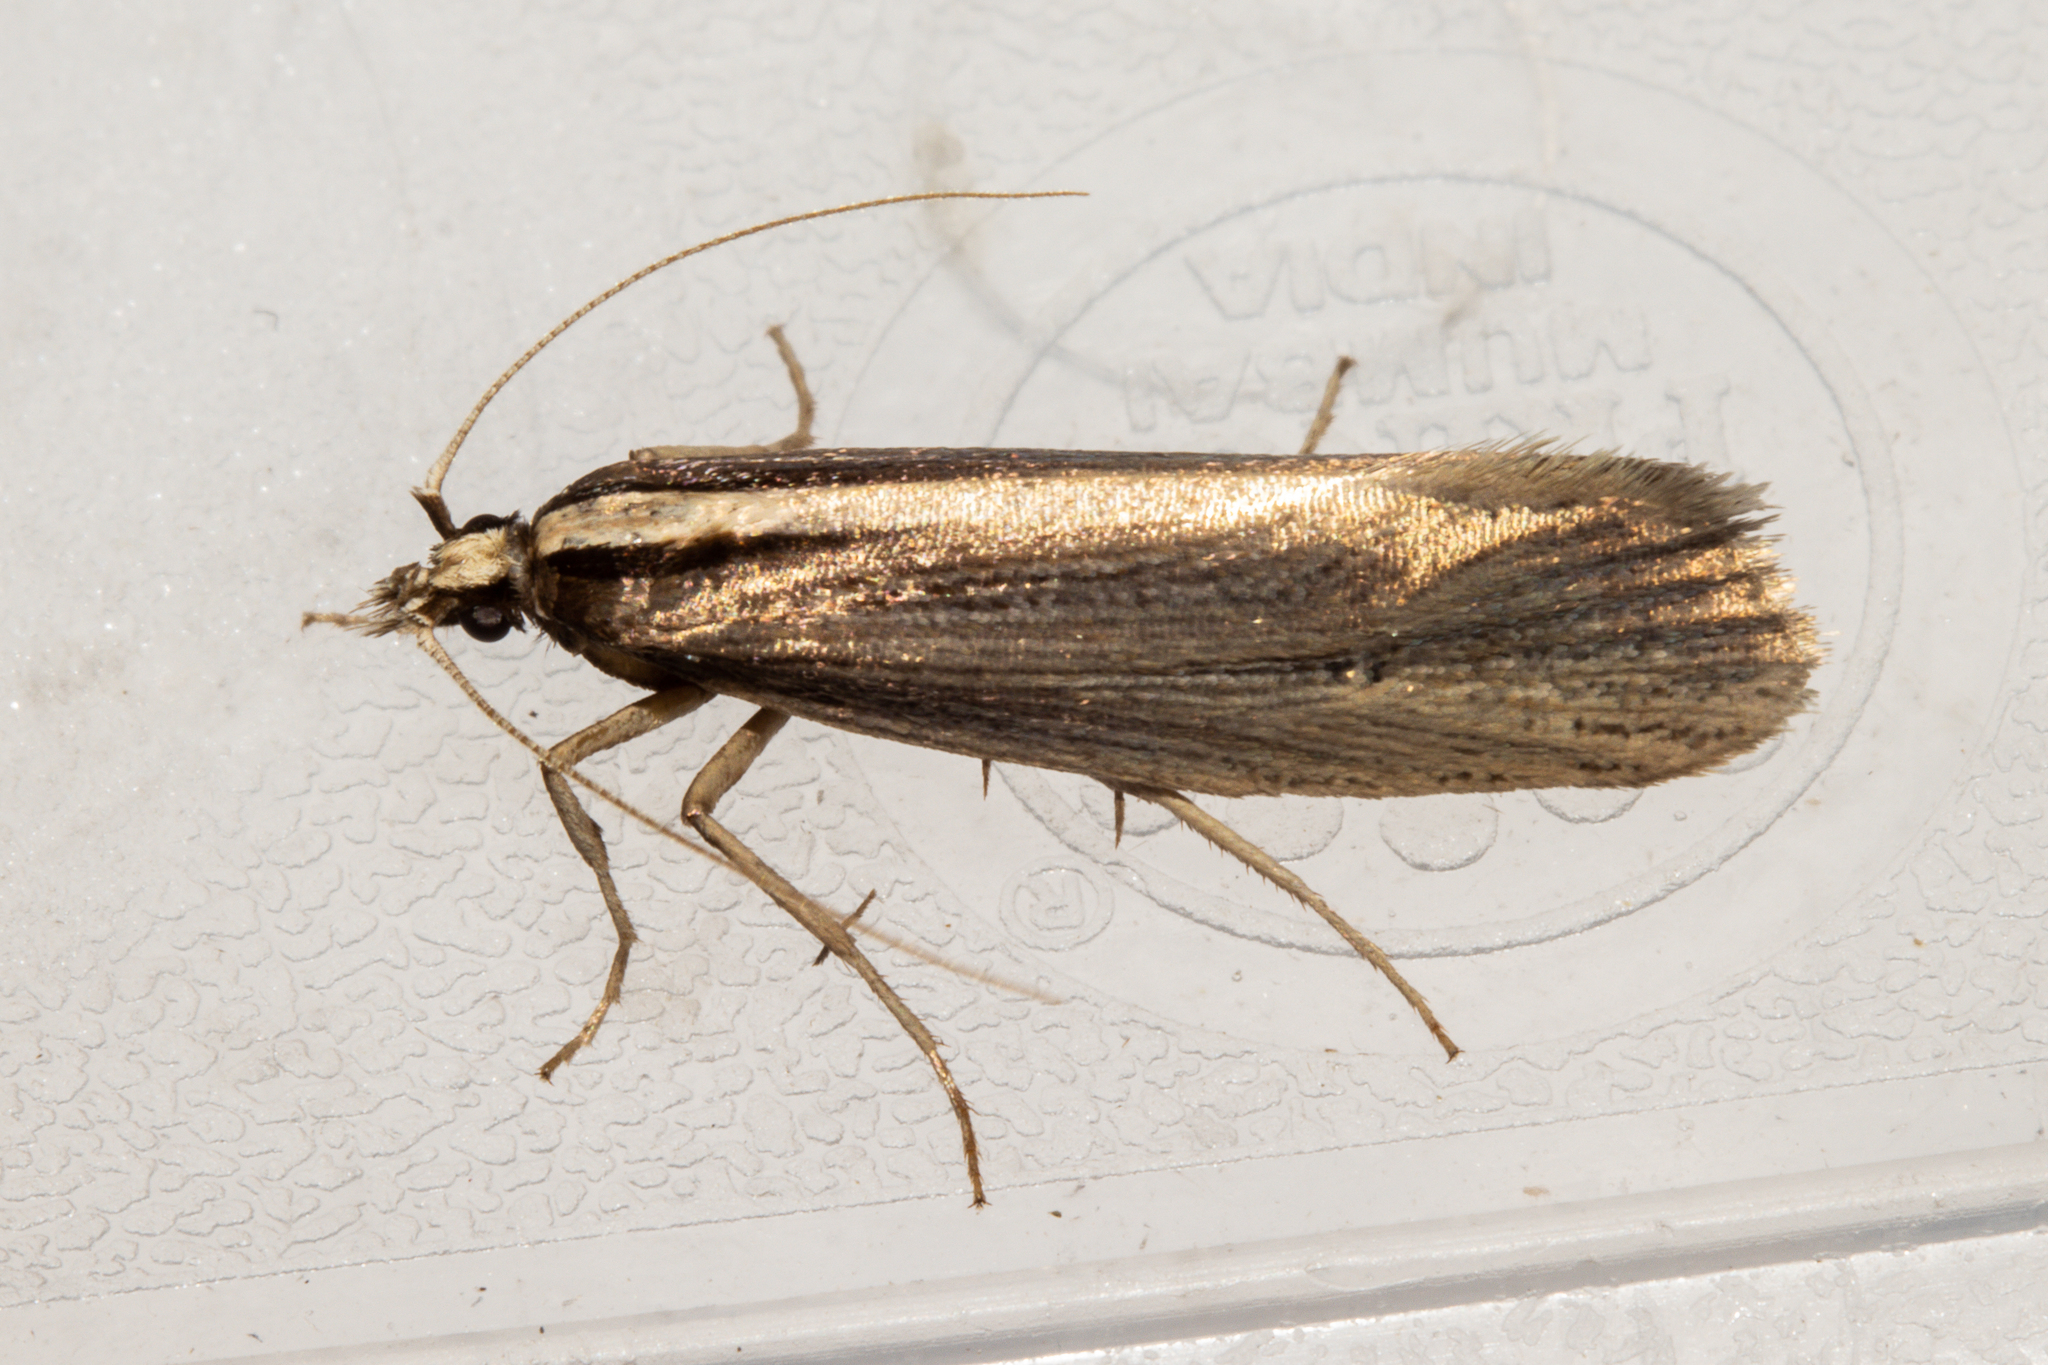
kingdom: Animalia
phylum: Arthropoda
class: Insecta
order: Lepidoptera
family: Plutellidae
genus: Proditrix
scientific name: Proditrix megalynta
